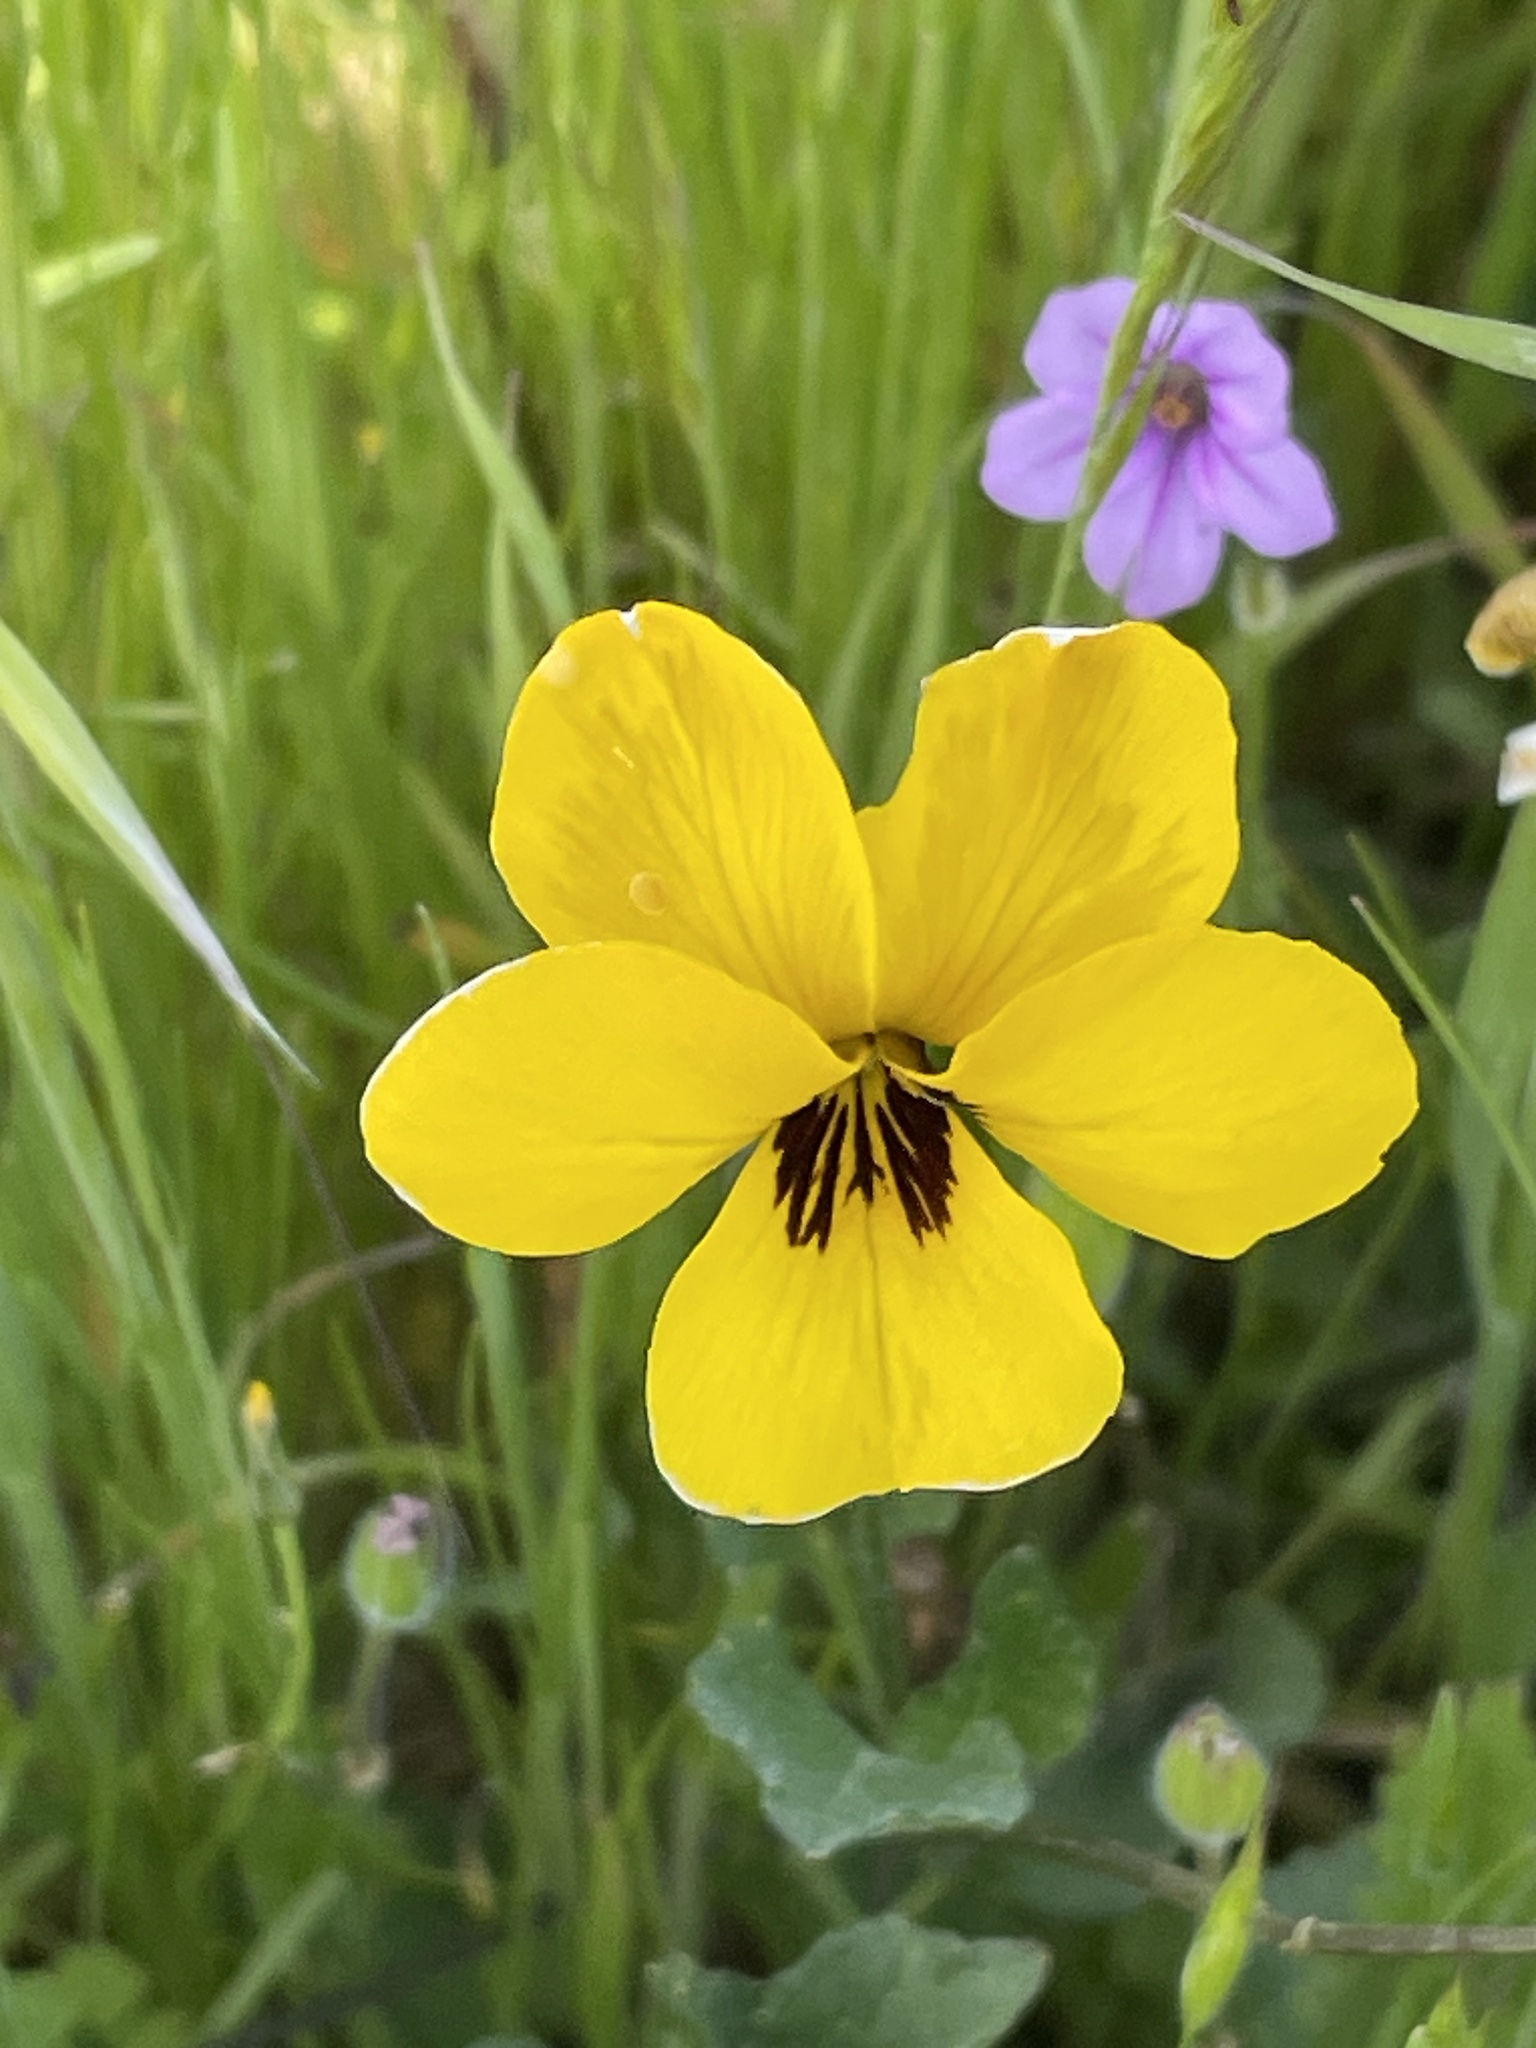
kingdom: Plantae
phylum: Tracheophyta
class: Magnoliopsida
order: Malpighiales
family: Violaceae
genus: Viola
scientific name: Viola pedunculata
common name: California golden violet
